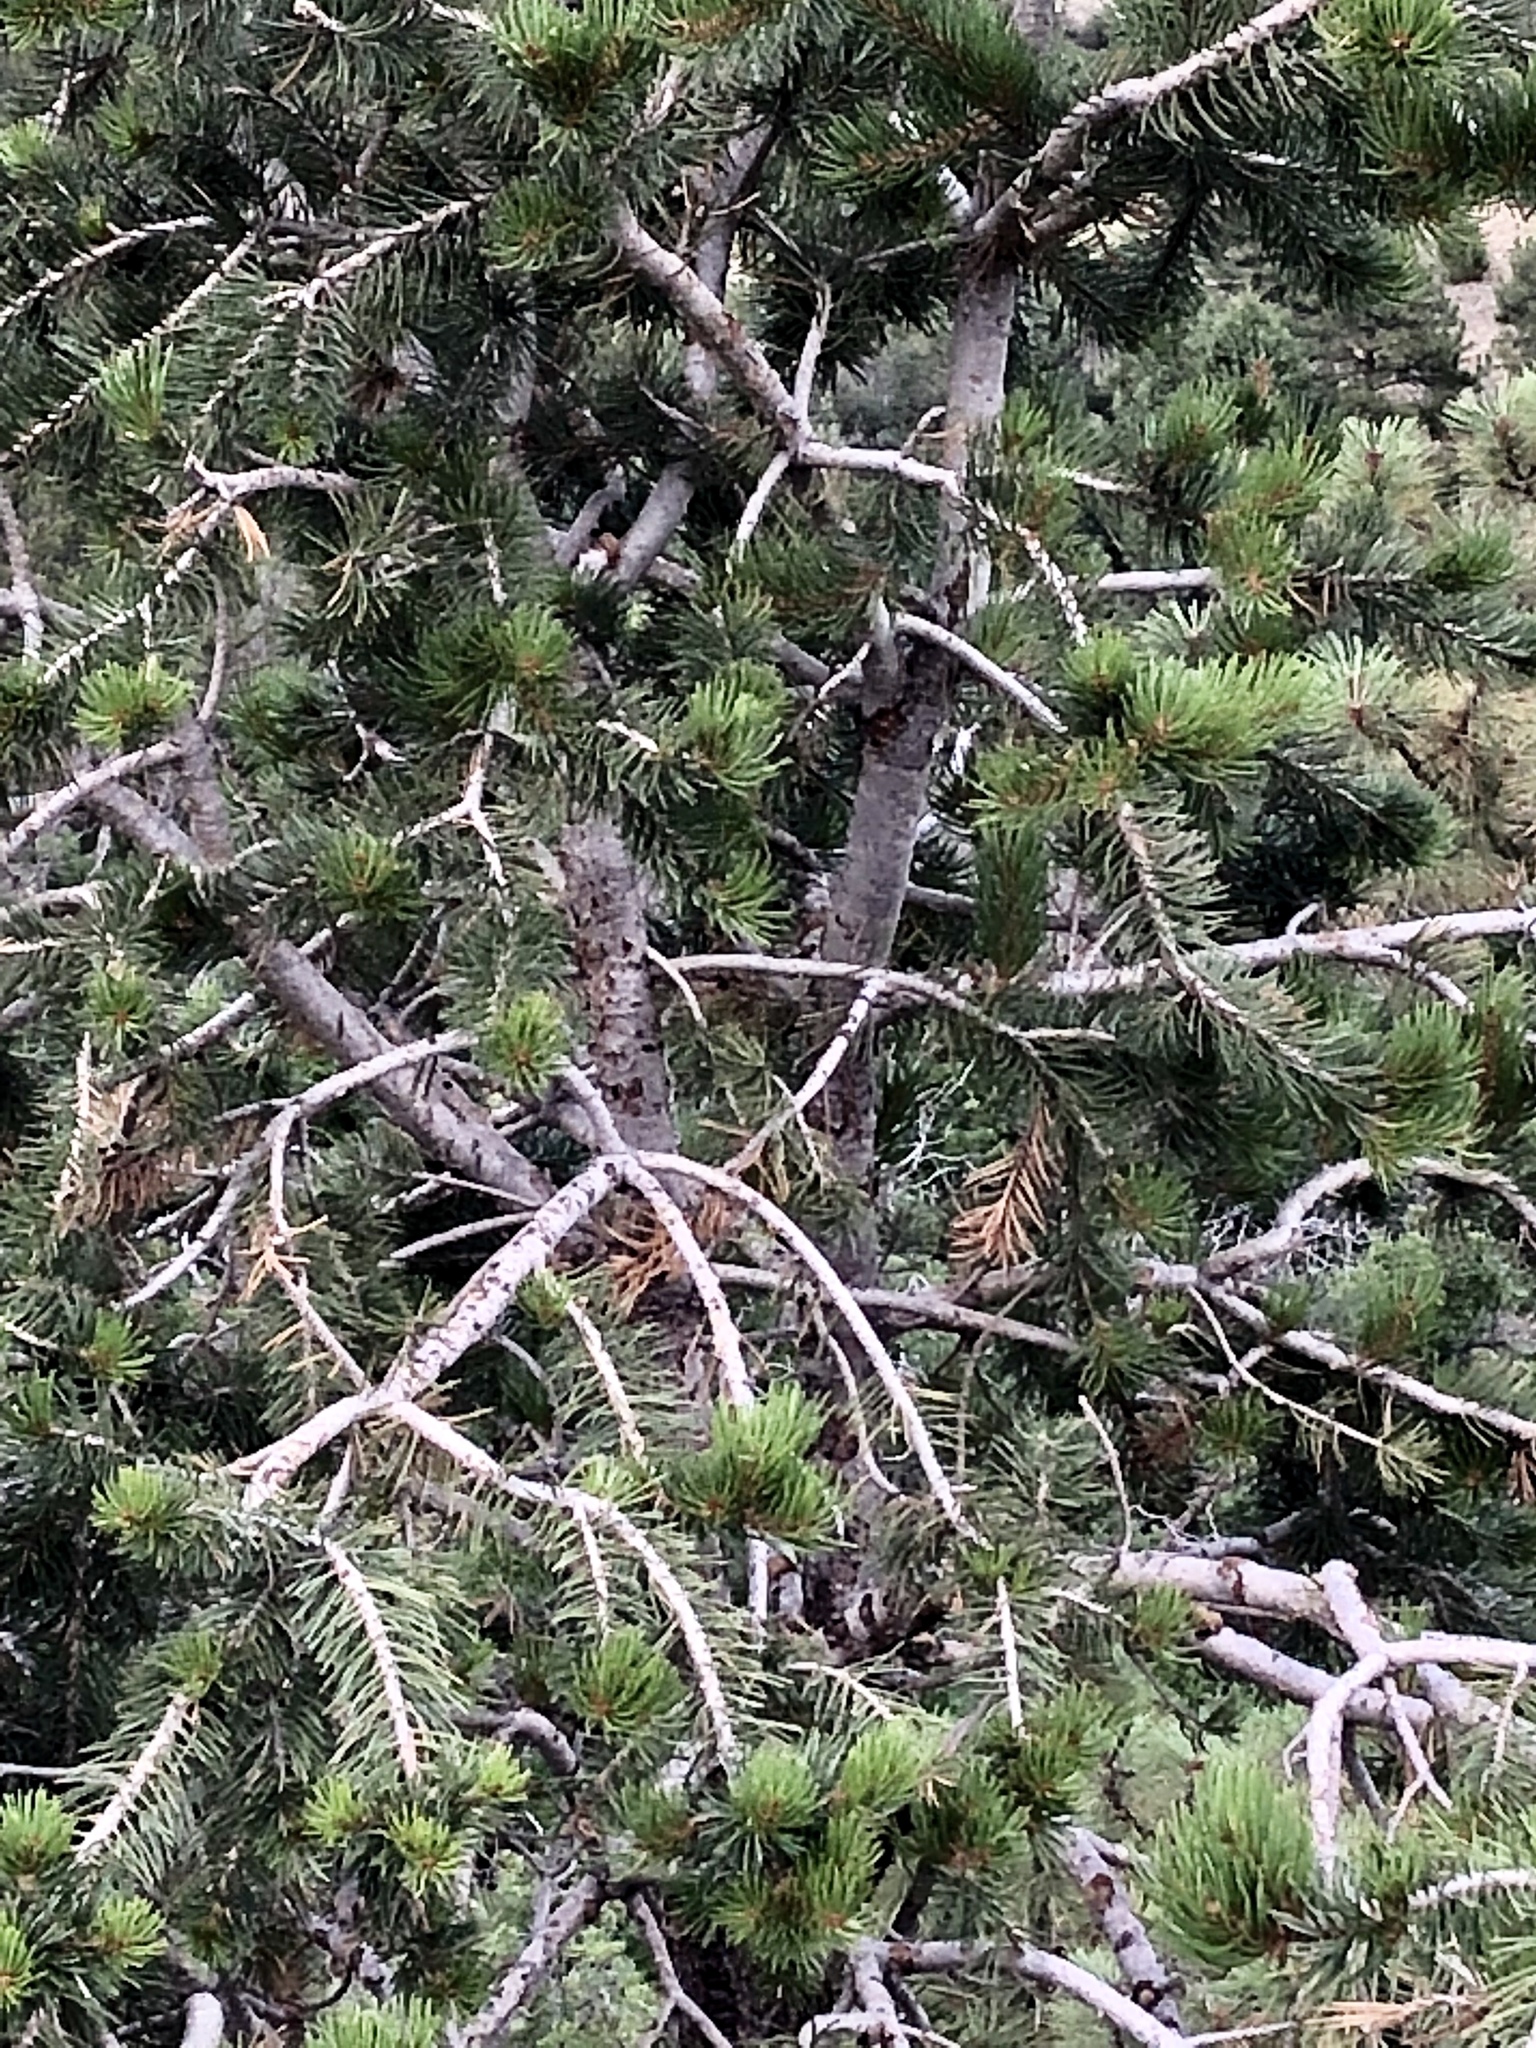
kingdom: Plantae
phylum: Tracheophyta
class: Pinopsida
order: Pinales
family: Pinaceae
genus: Pinus
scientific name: Pinus edulis
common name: Colorado pinyon
